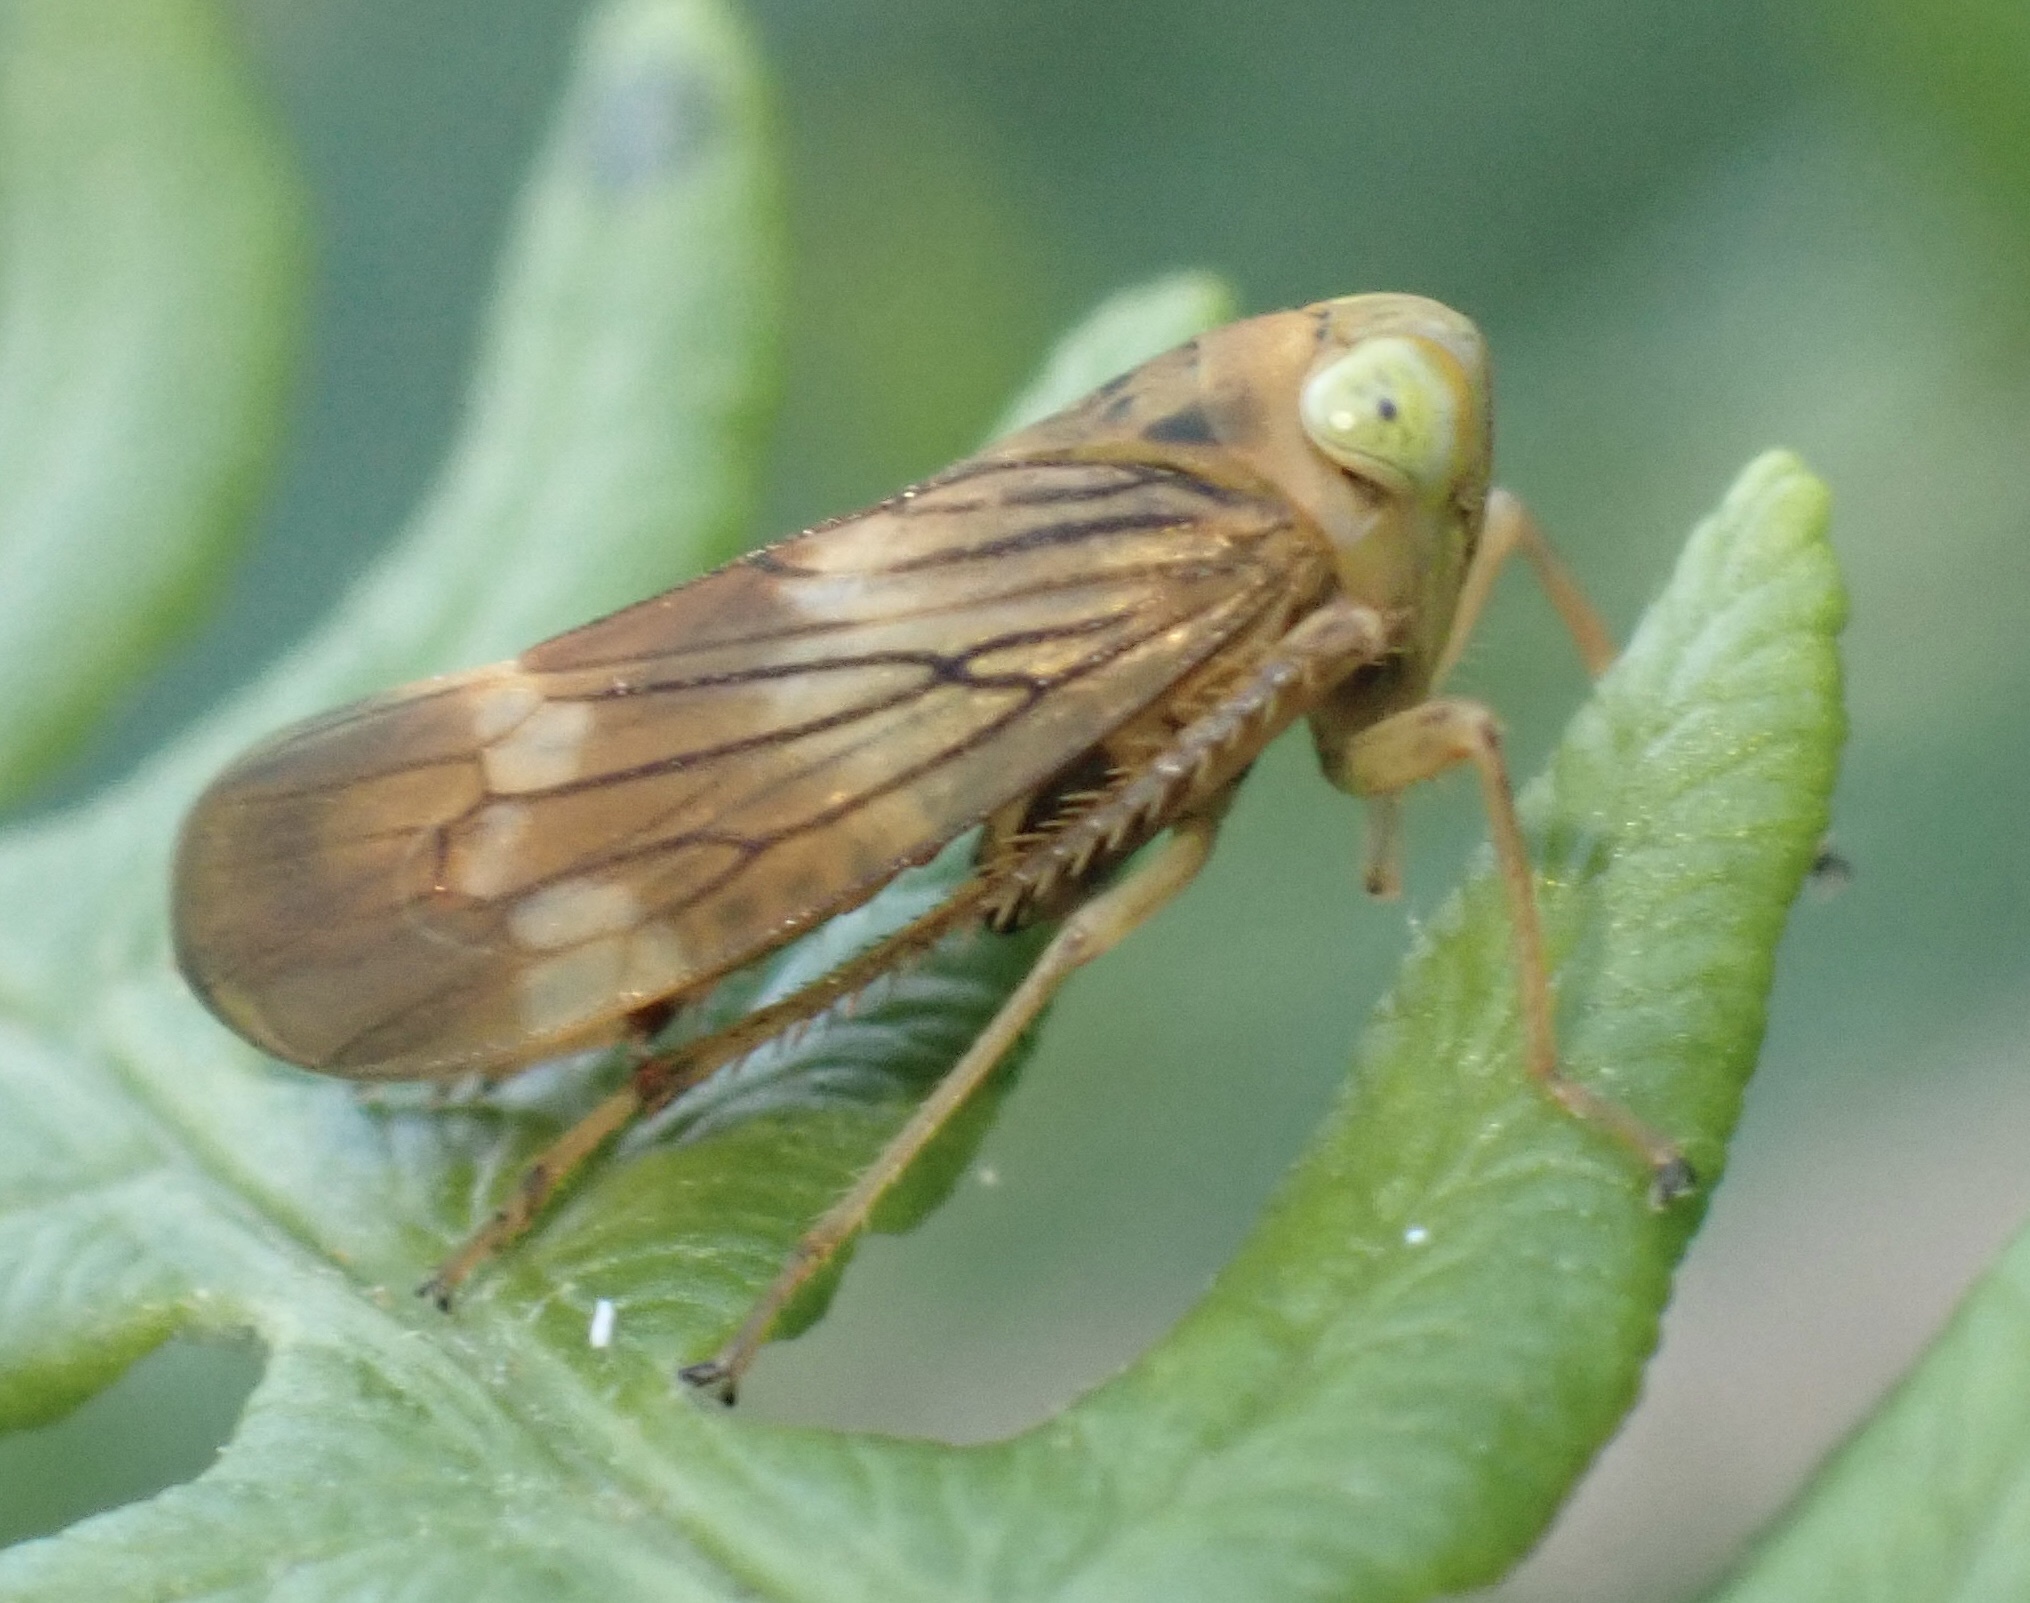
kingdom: Animalia
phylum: Arthropoda
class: Insecta
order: Hemiptera
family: Cicadellidae
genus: Jikradia
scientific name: Jikradia olitoria
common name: Coppery leafhopper
